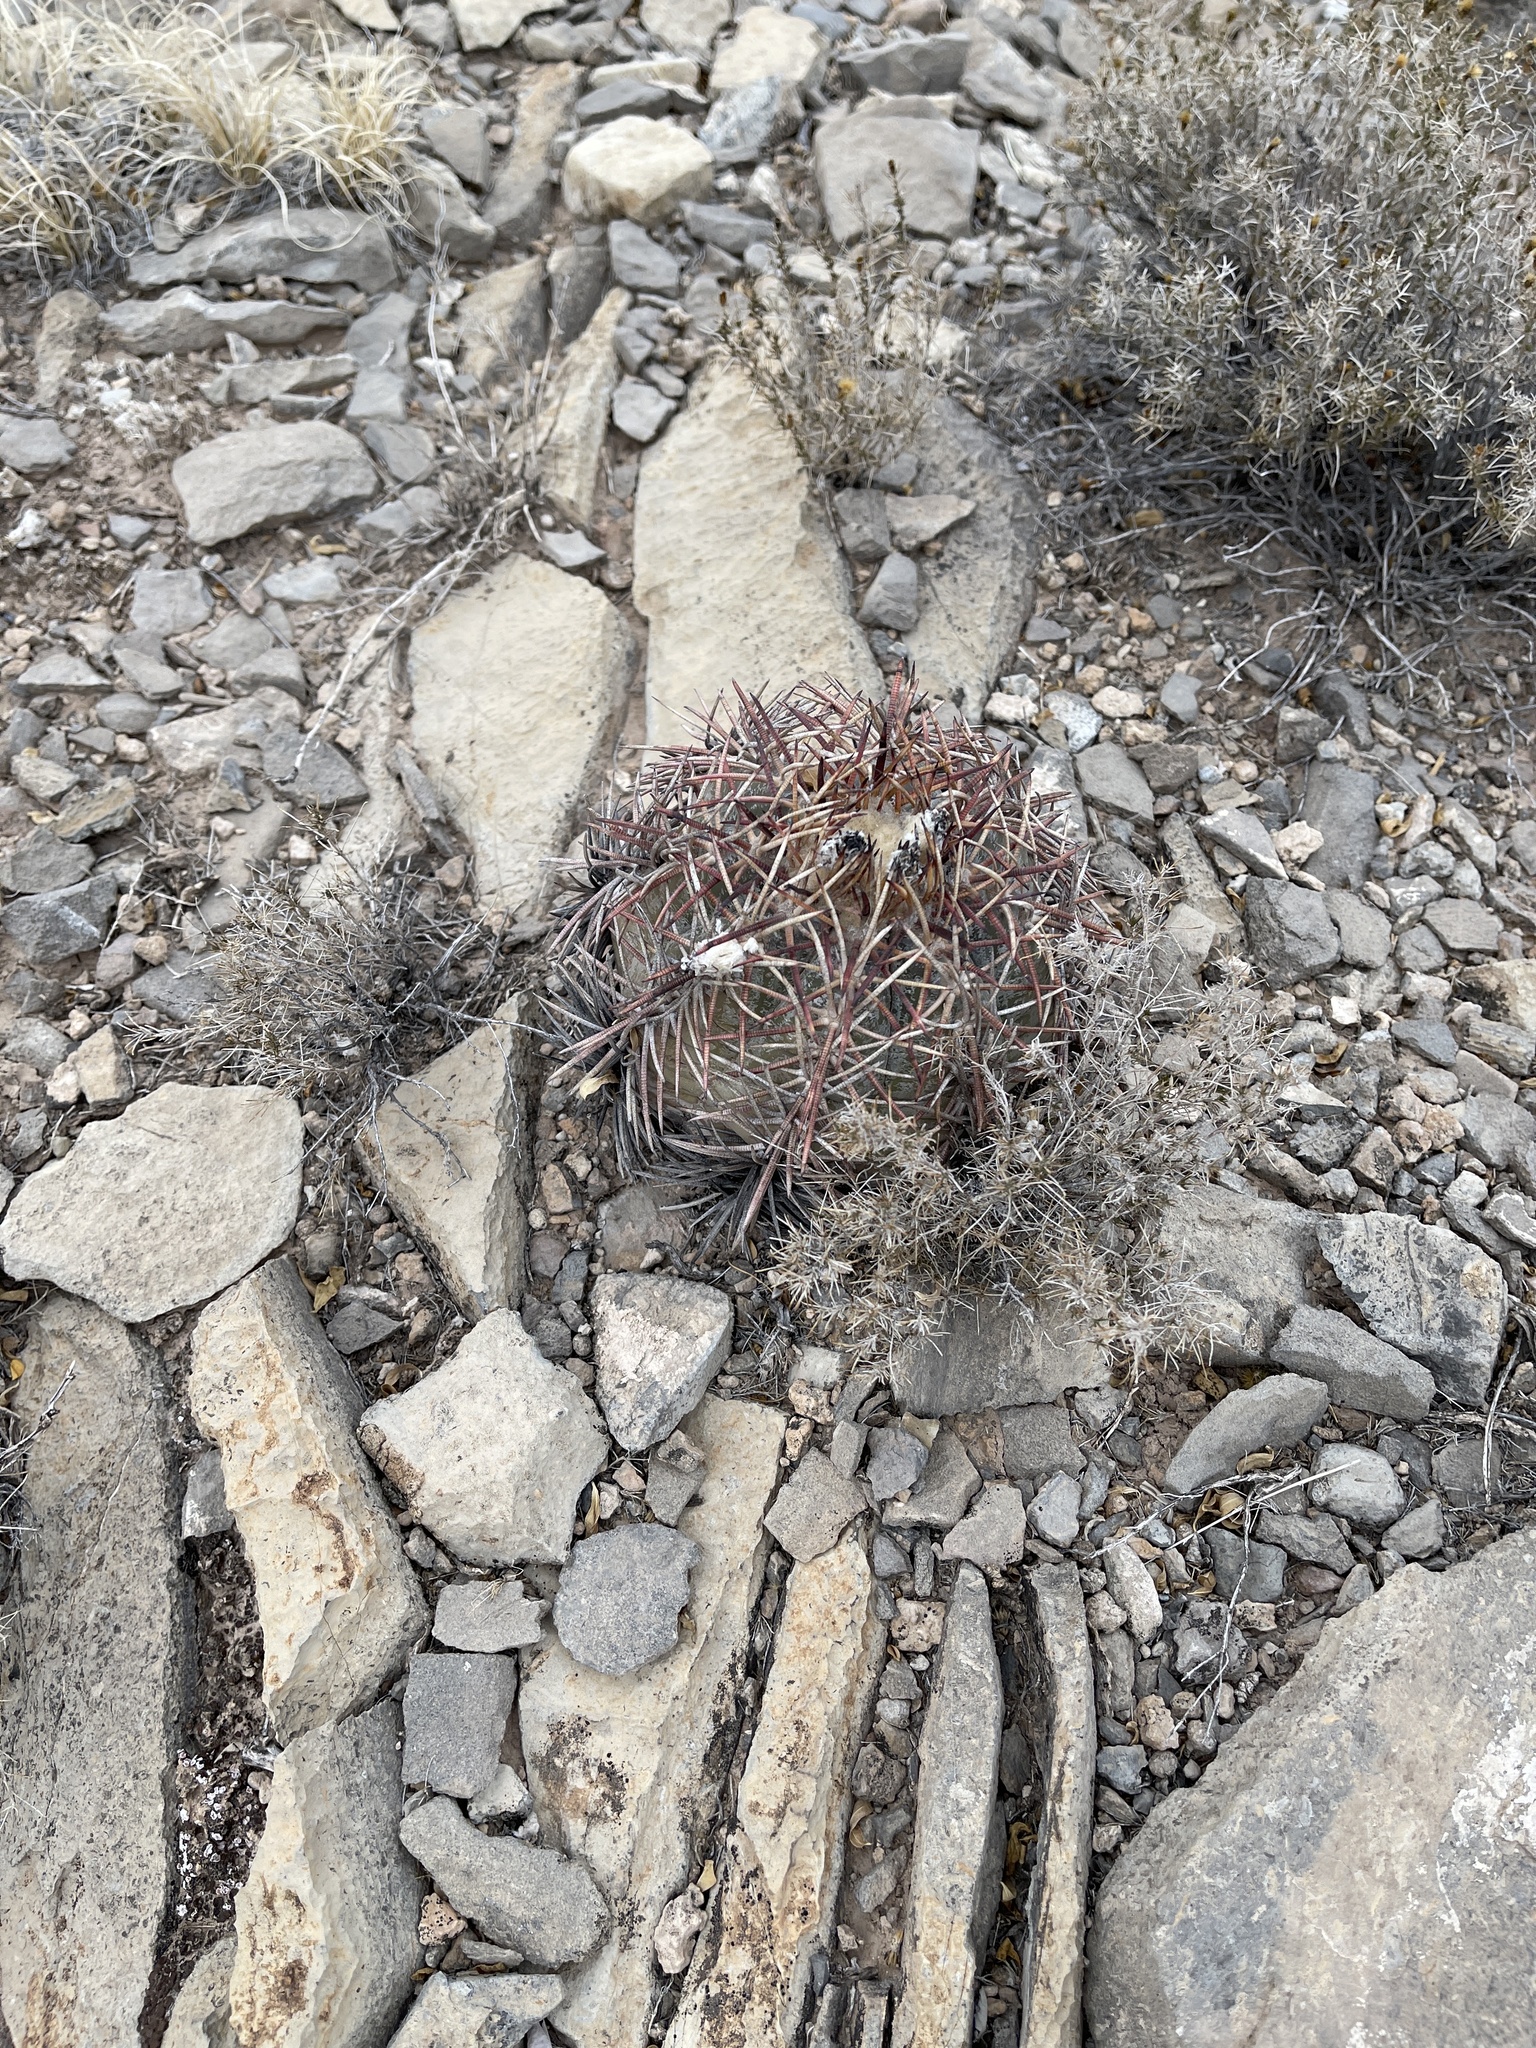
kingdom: Plantae
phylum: Tracheophyta
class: Magnoliopsida
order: Caryophyllales
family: Cactaceae
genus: Echinocactus
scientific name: Echinocactus horizonthalonius
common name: Devilshead
